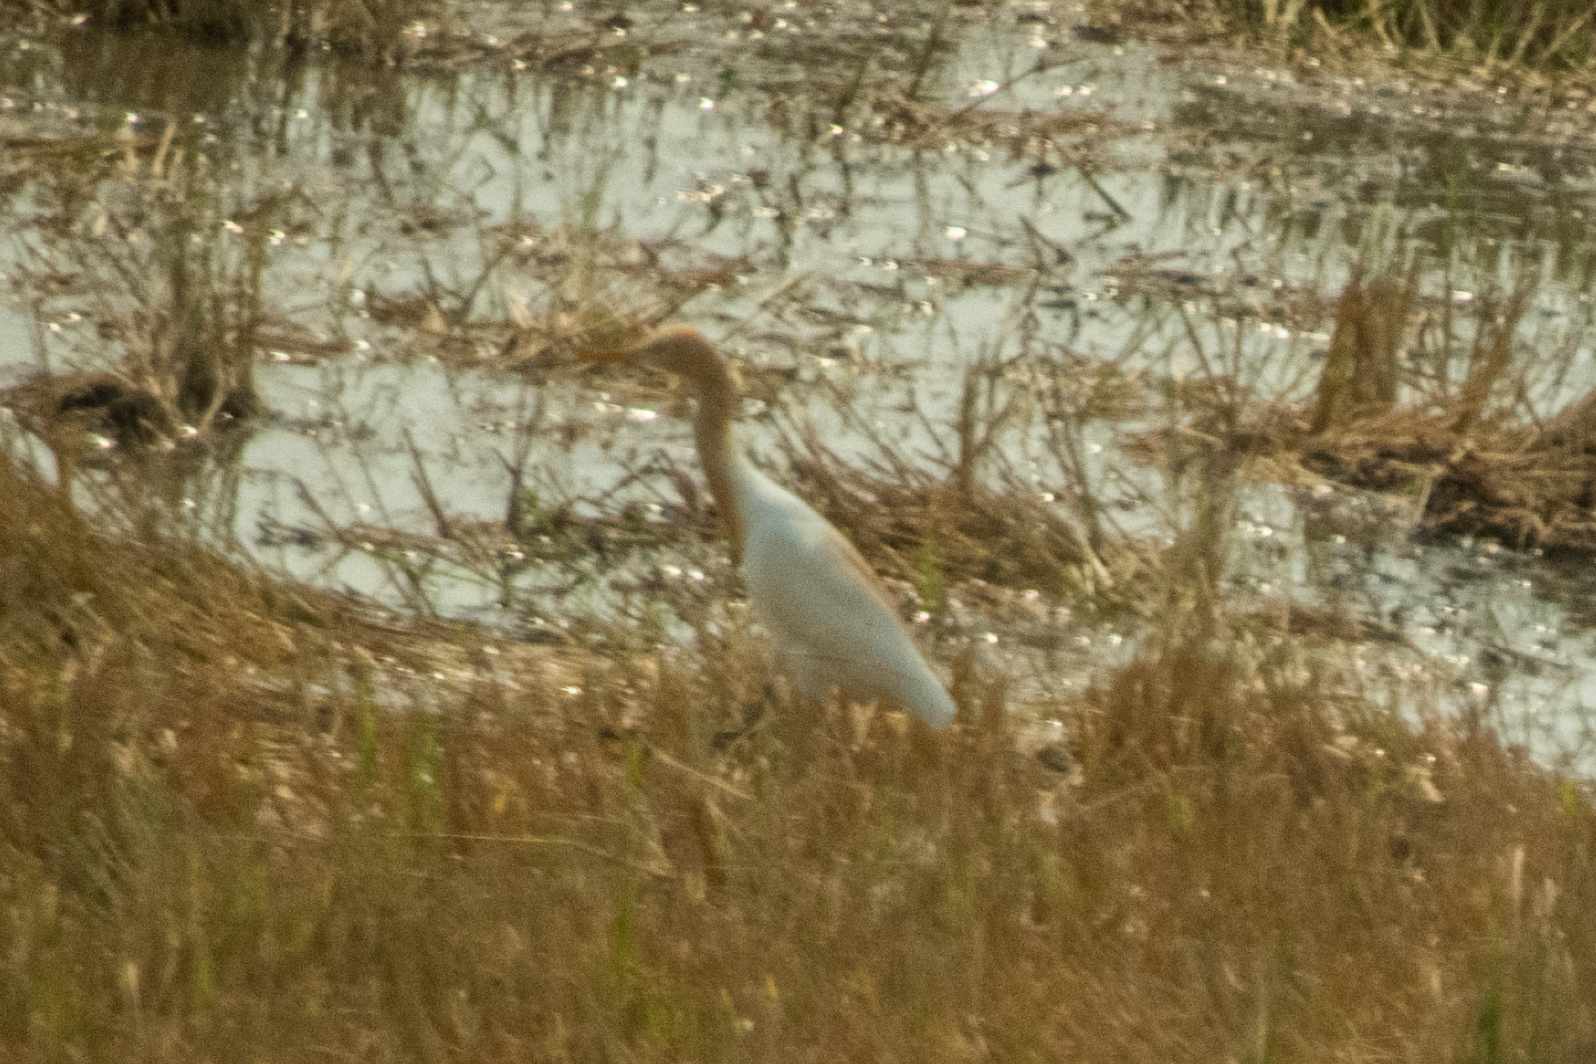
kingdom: Animalia
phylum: Chordata
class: Aves
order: Pelecaniformes
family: Ardeidae
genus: Bubulcus
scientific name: Bubulcus coromandus
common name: Eastern cattle egret
